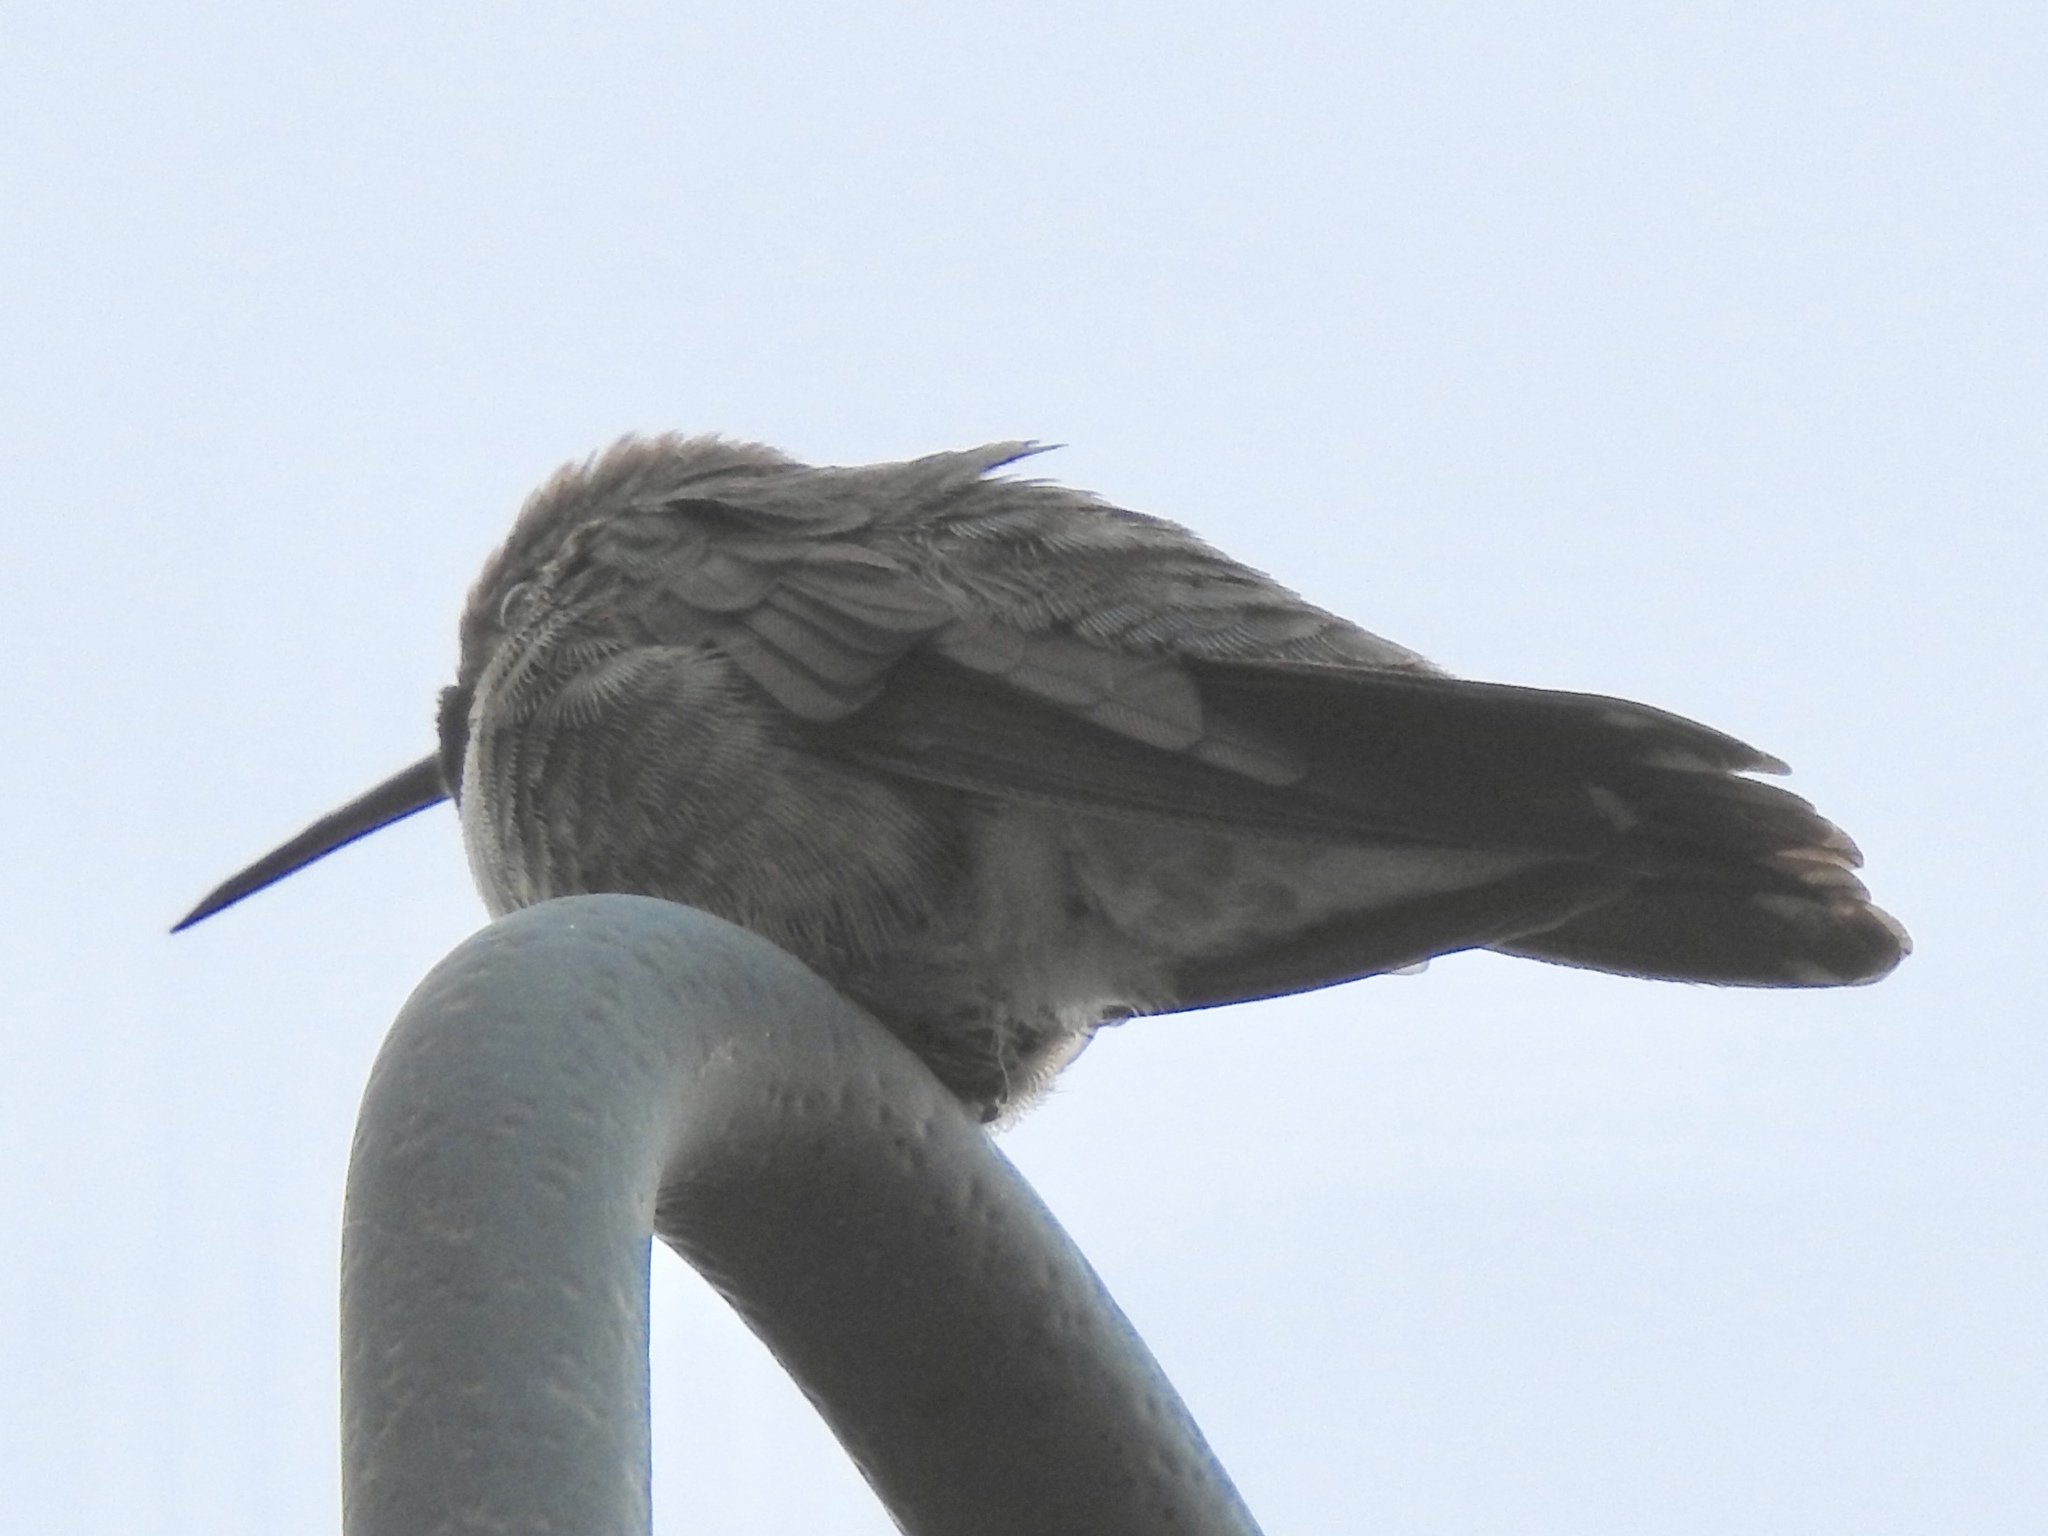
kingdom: Animalia
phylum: Chordata
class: Aves
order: Apodiformes
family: Trochilidae
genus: Selasphorus
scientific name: Selasphorus platycercus
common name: Broad-tailed hummingbird
